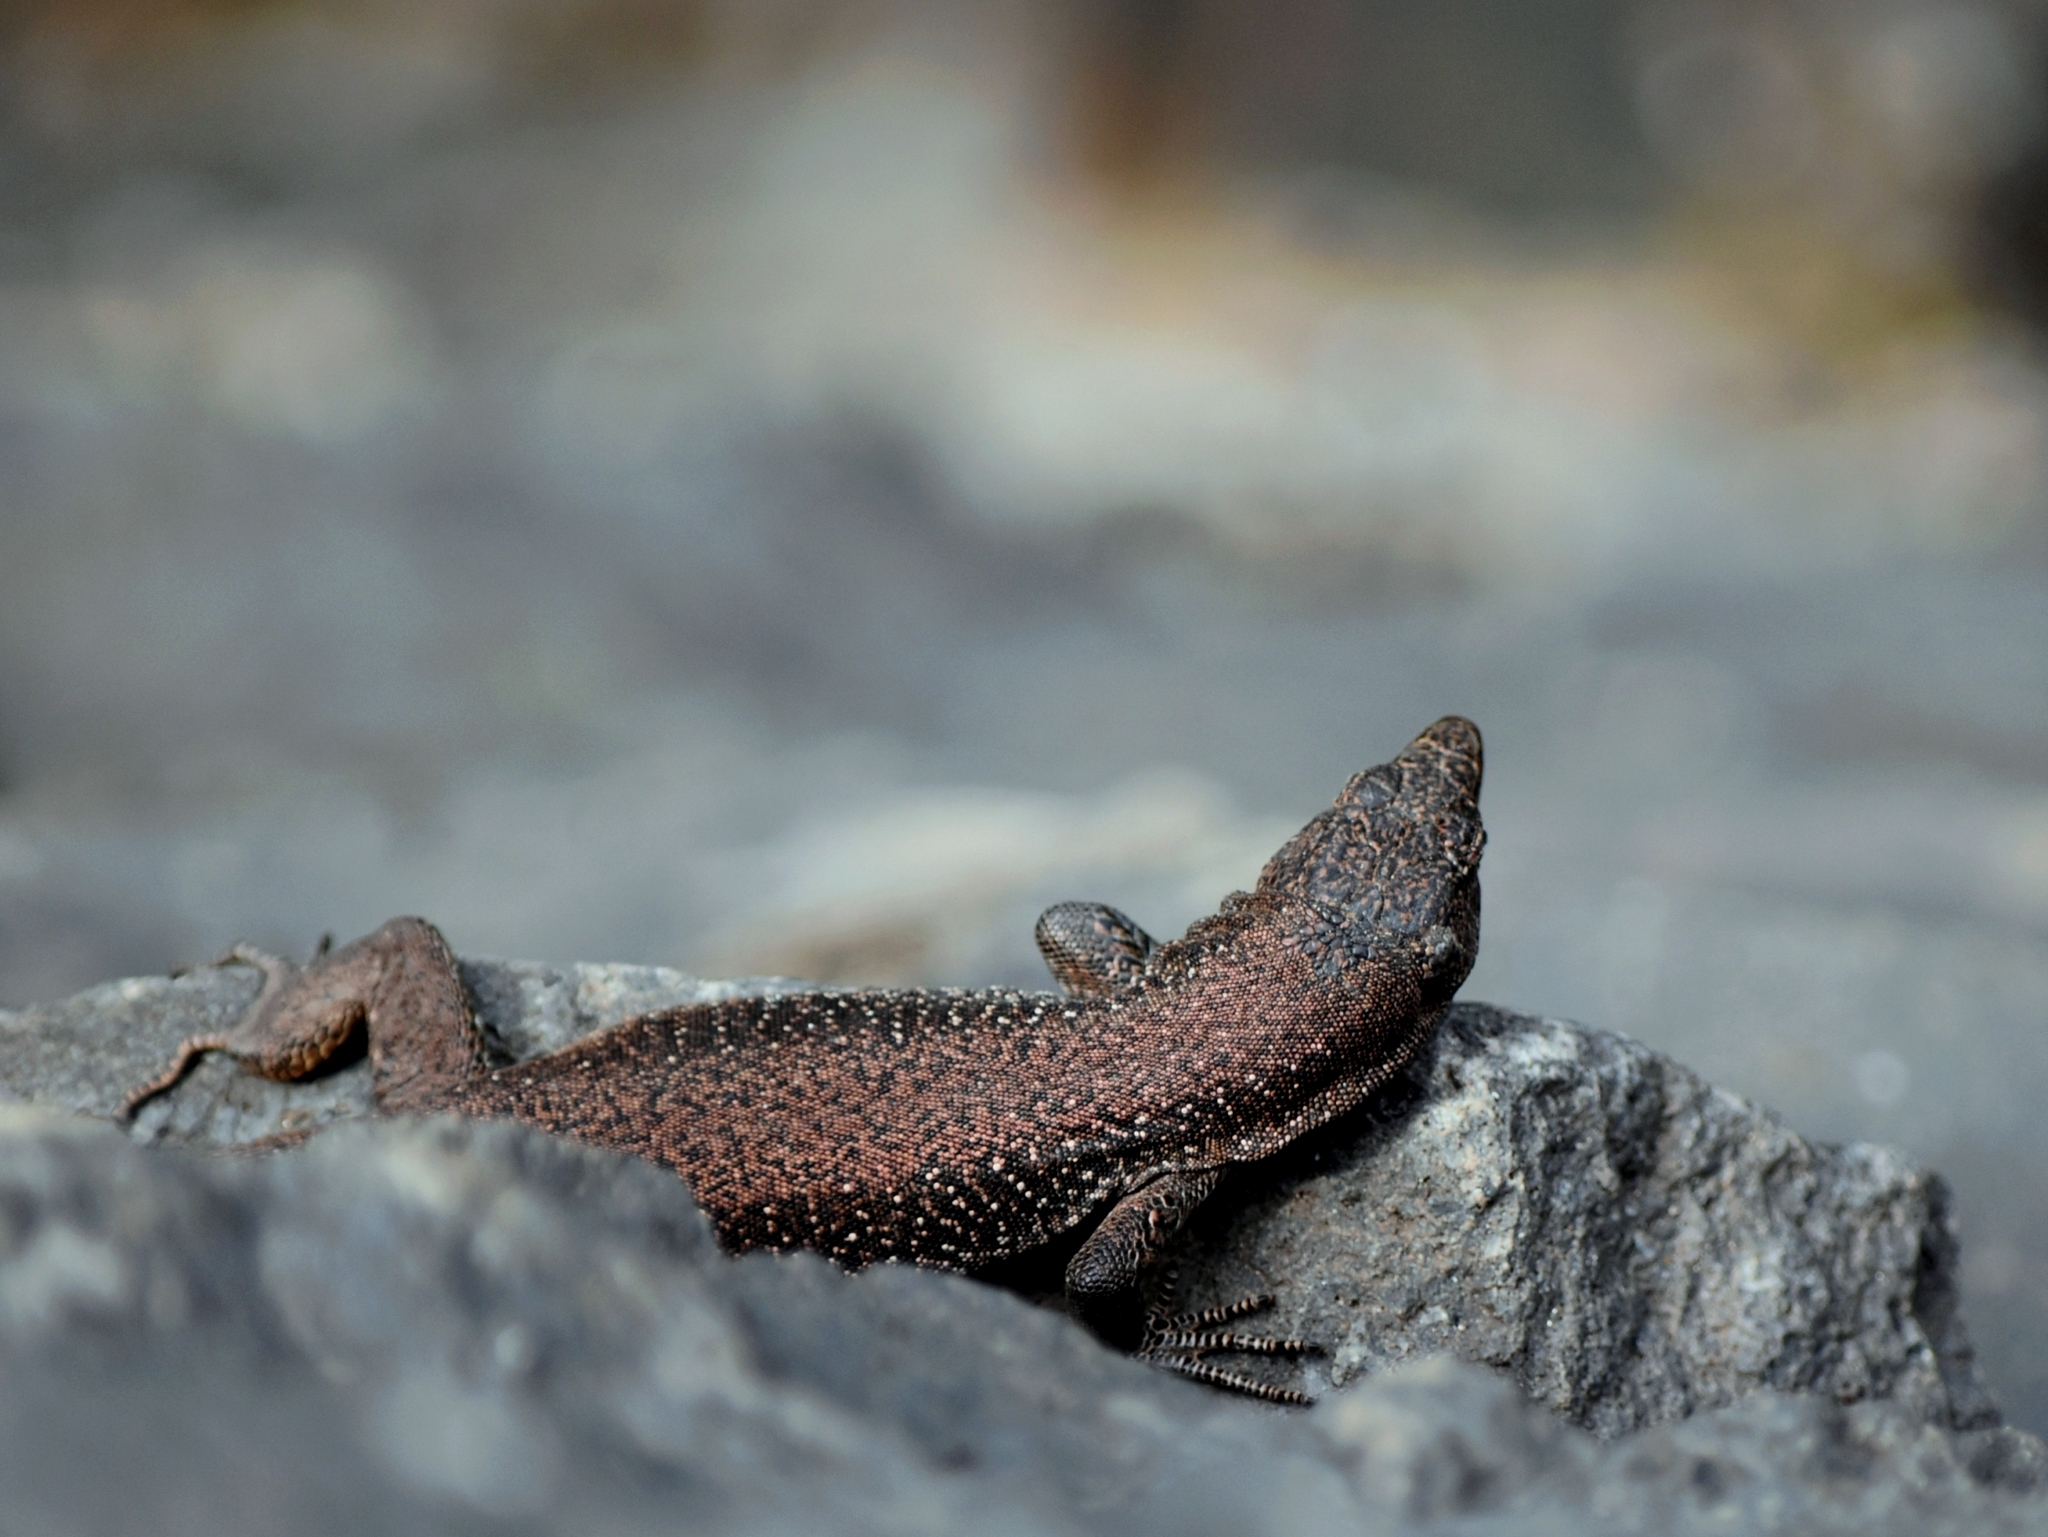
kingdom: Animalia
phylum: Chordata
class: Squamata
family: Lacertidae
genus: Teira
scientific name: Teira dugesii
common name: Madeira lizard
